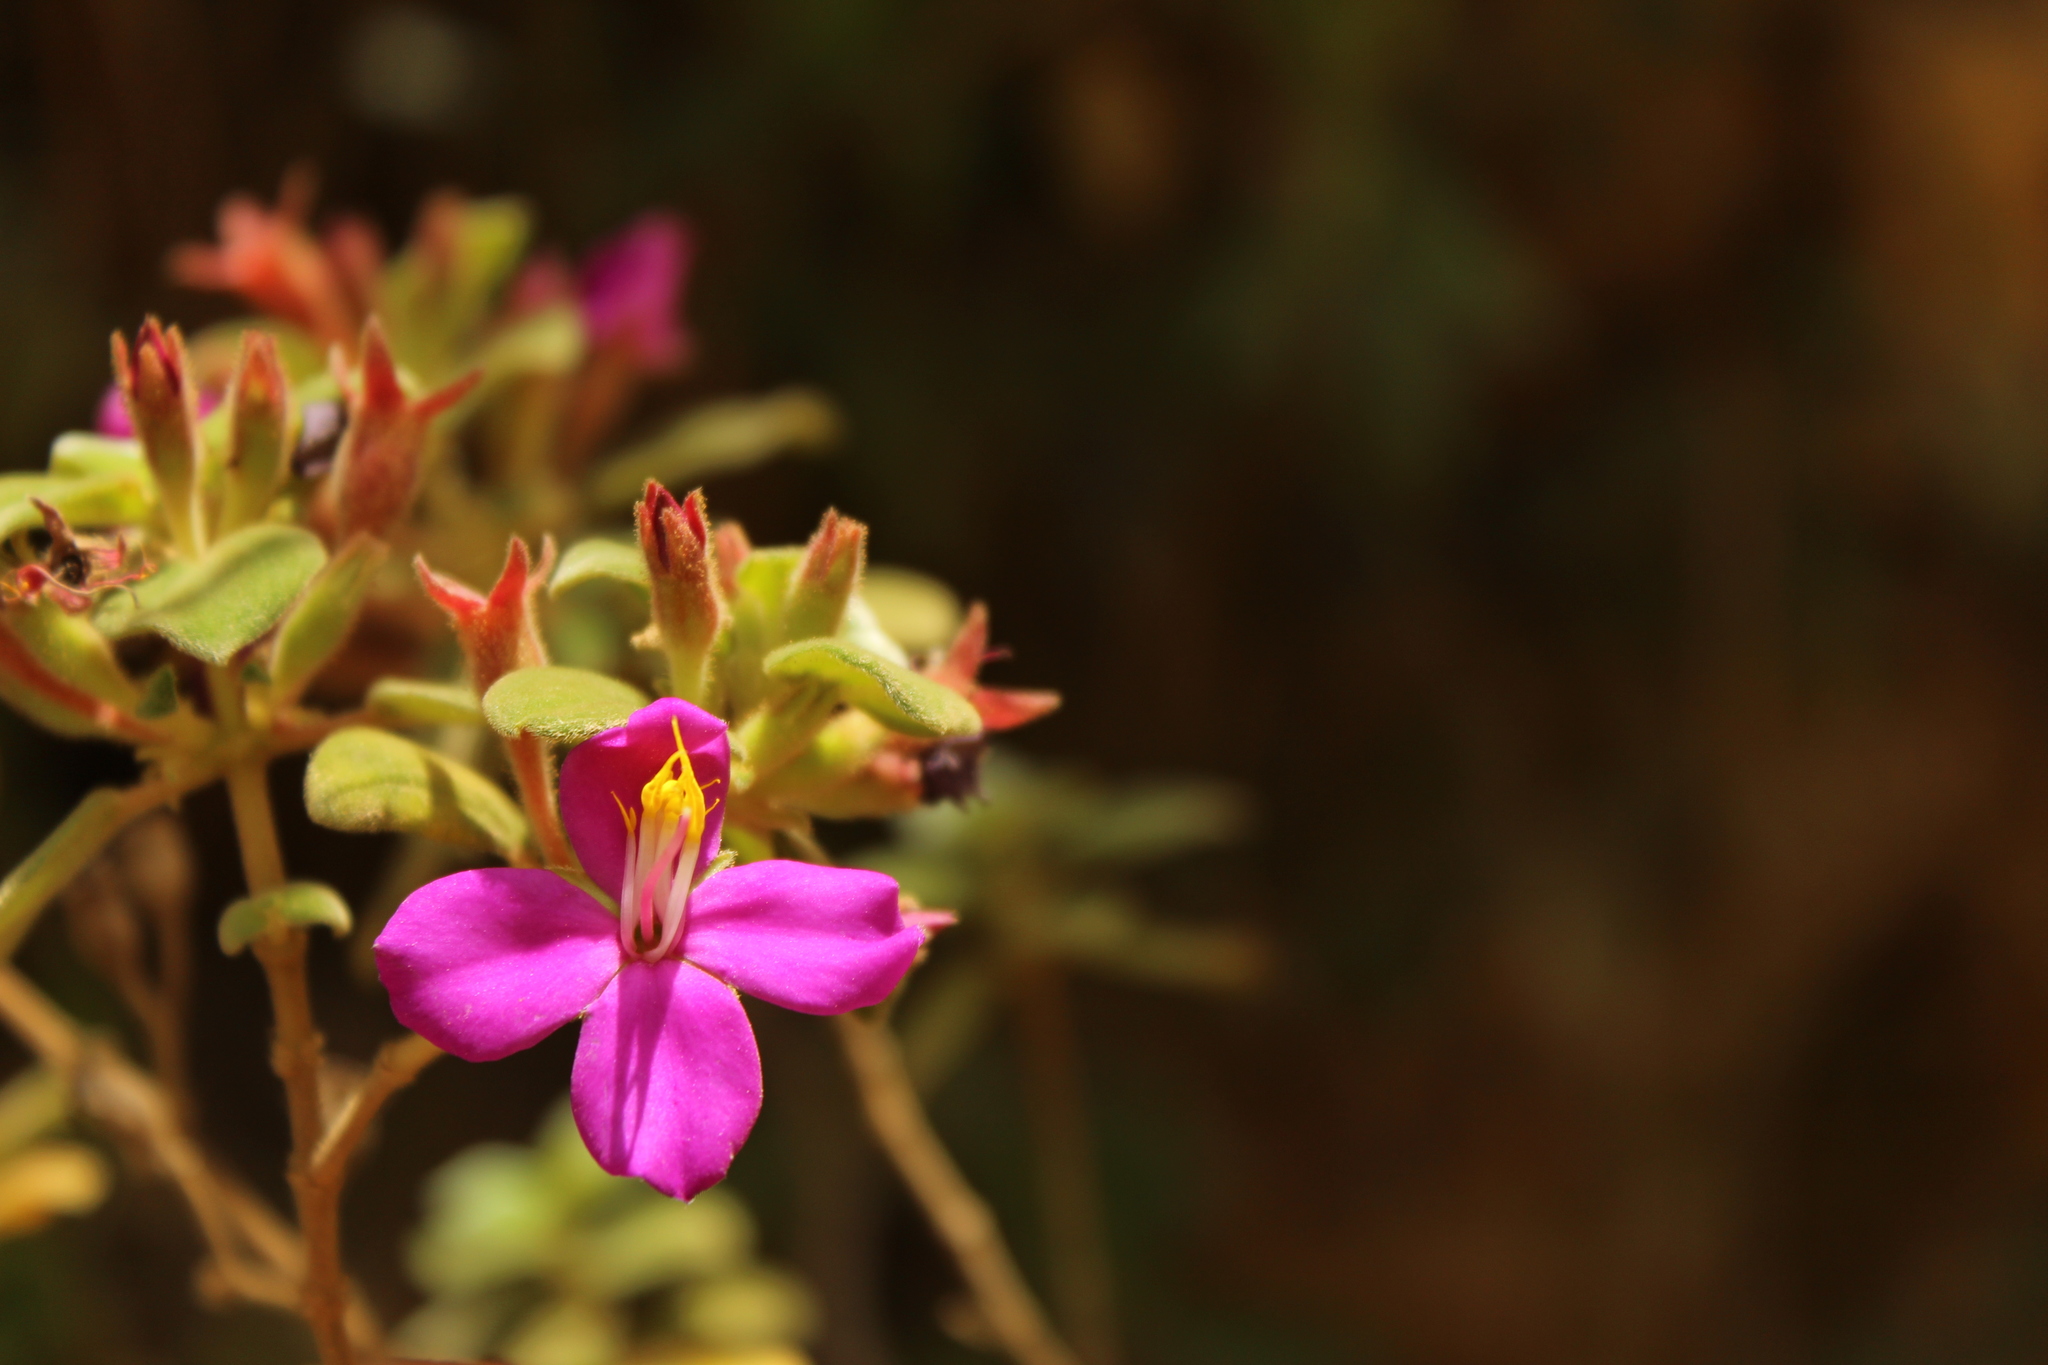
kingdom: Plantae
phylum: Tracheophyta
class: Magnoliopsida
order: Myrtales
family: Melastomataceae
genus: Monochaetum
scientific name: Monochaetum bonplandii
